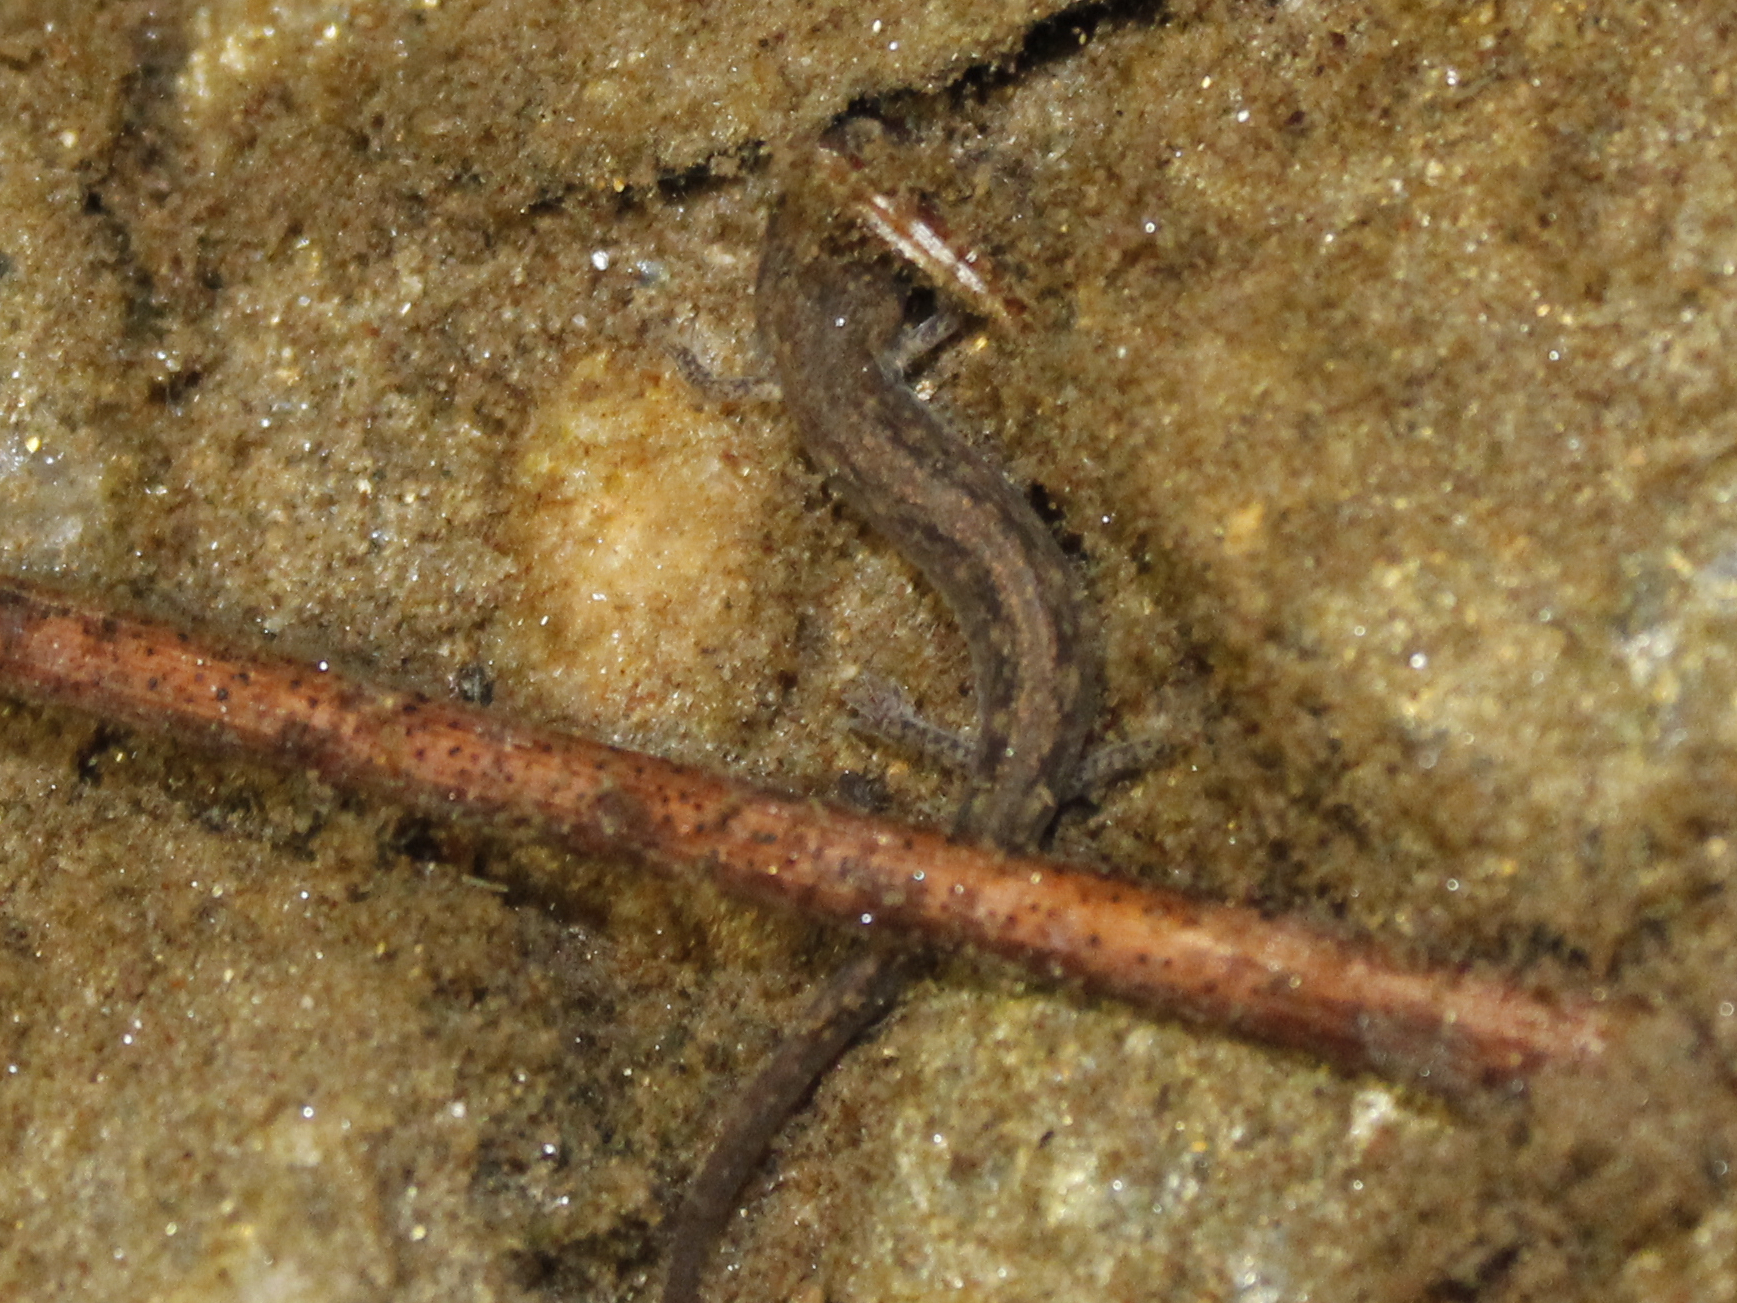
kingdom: Animalia
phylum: Chordata
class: Amphibia
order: Caudata
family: Plethodontidae
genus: Eurycea
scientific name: Eurycea bislineata
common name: Northern two-lined salamander
